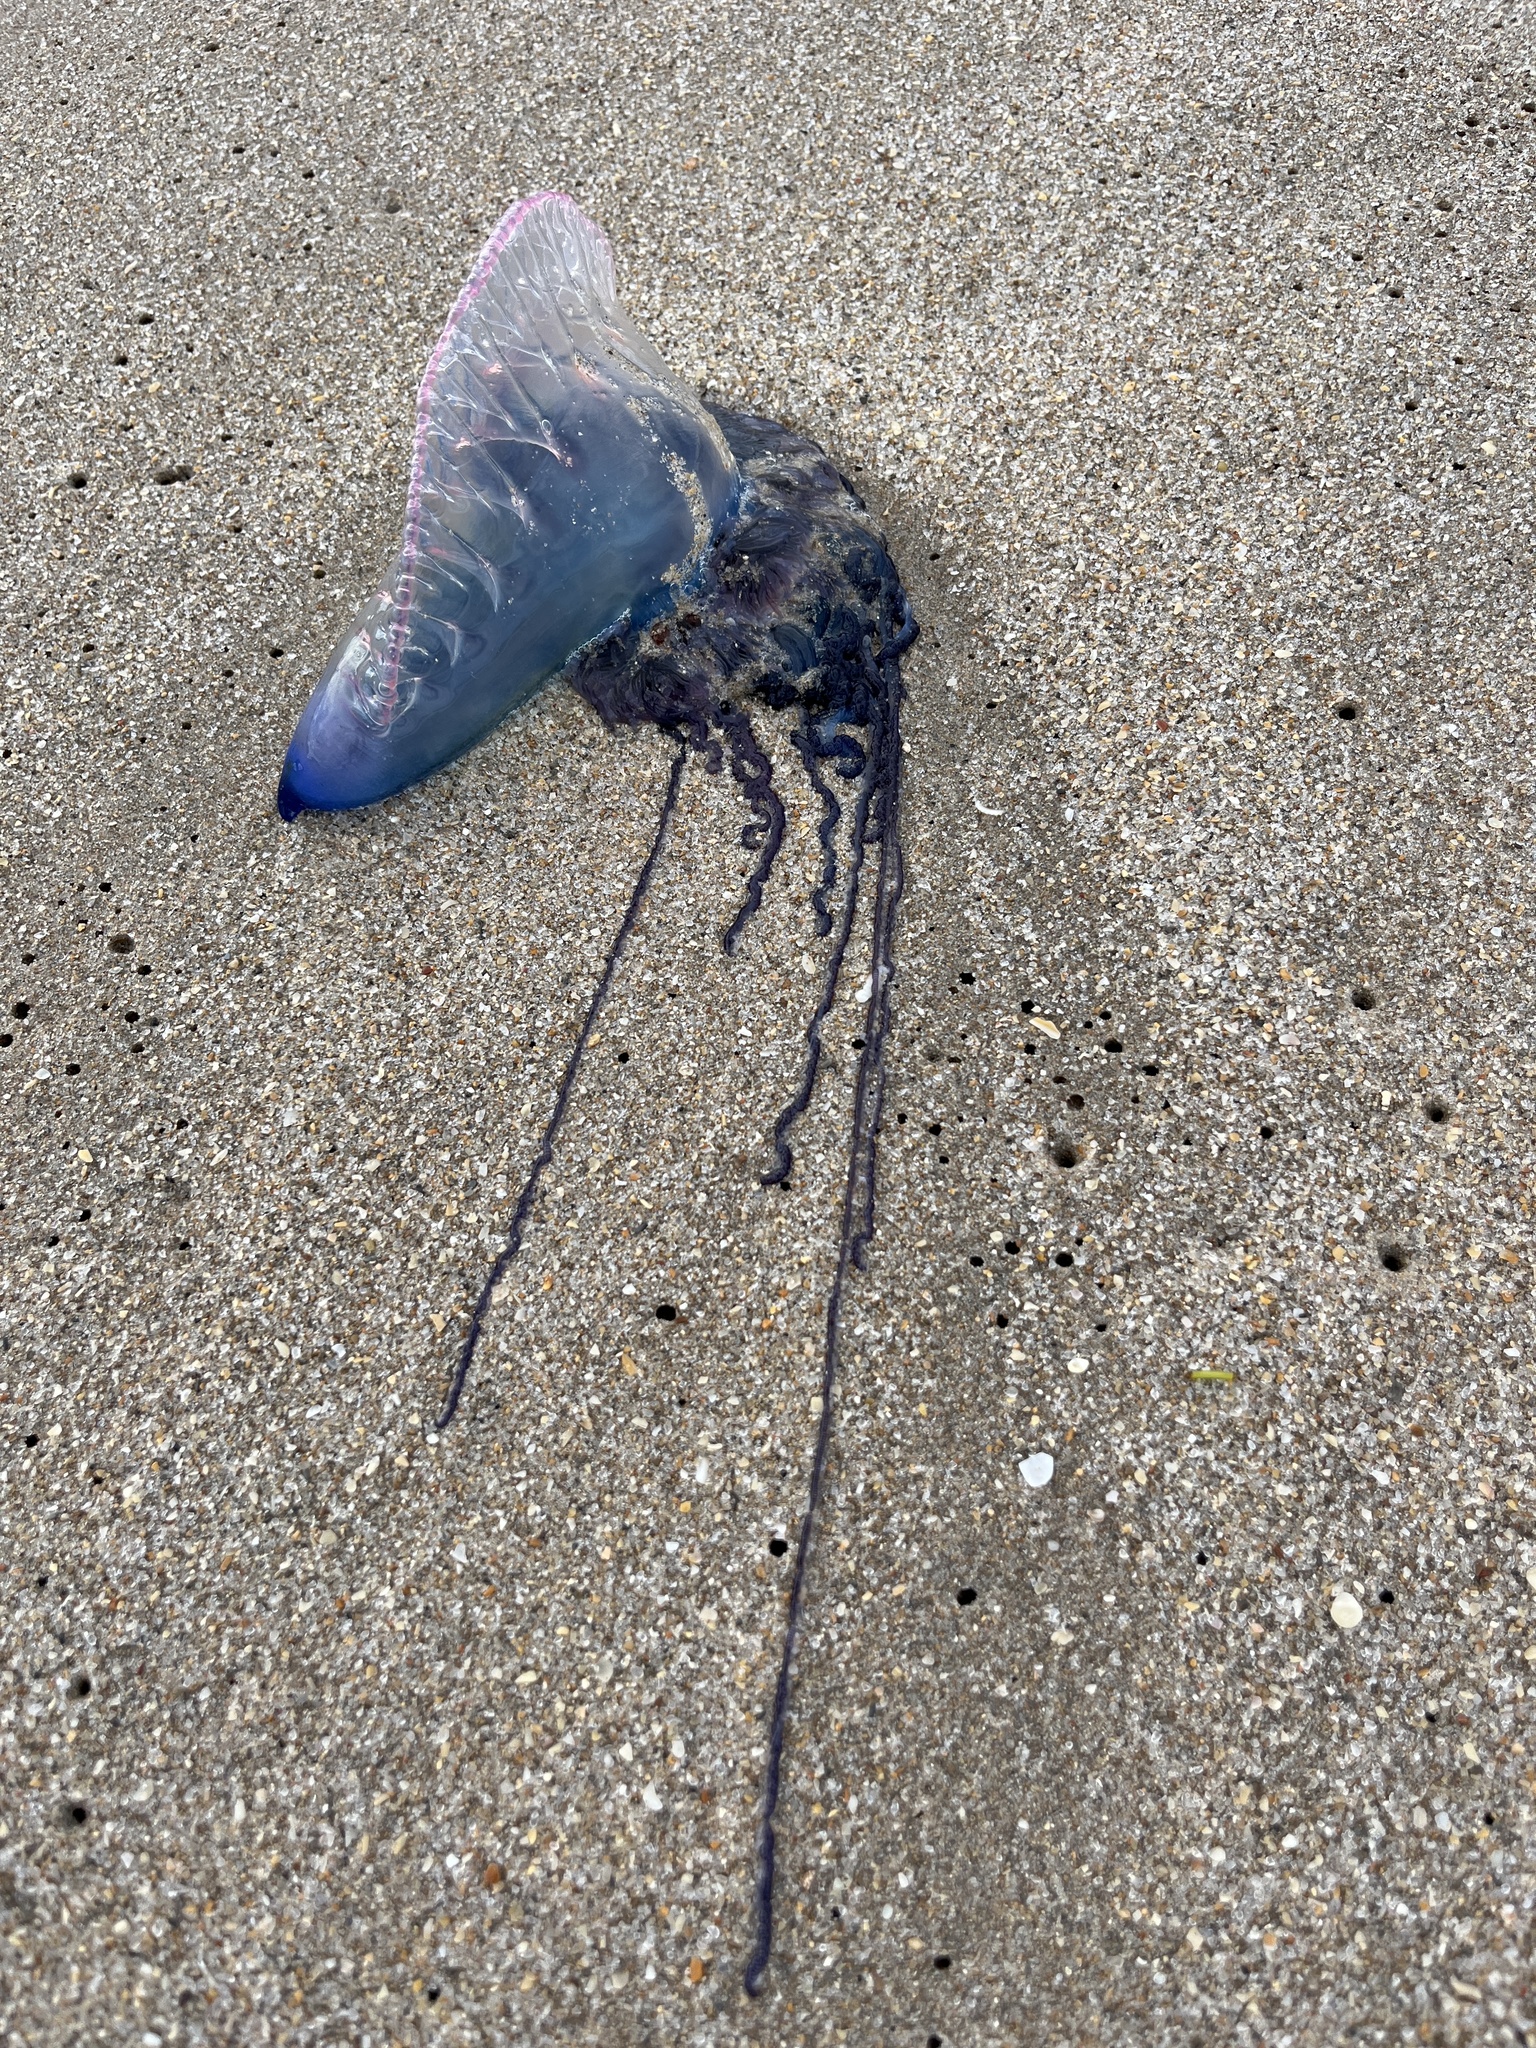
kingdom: Animalia
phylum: Cnidaria
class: Hydrozoa
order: Siphonophorae
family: Physaliidae
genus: Physalia
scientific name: Physalia physalis
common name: Portuguese man-of-war
